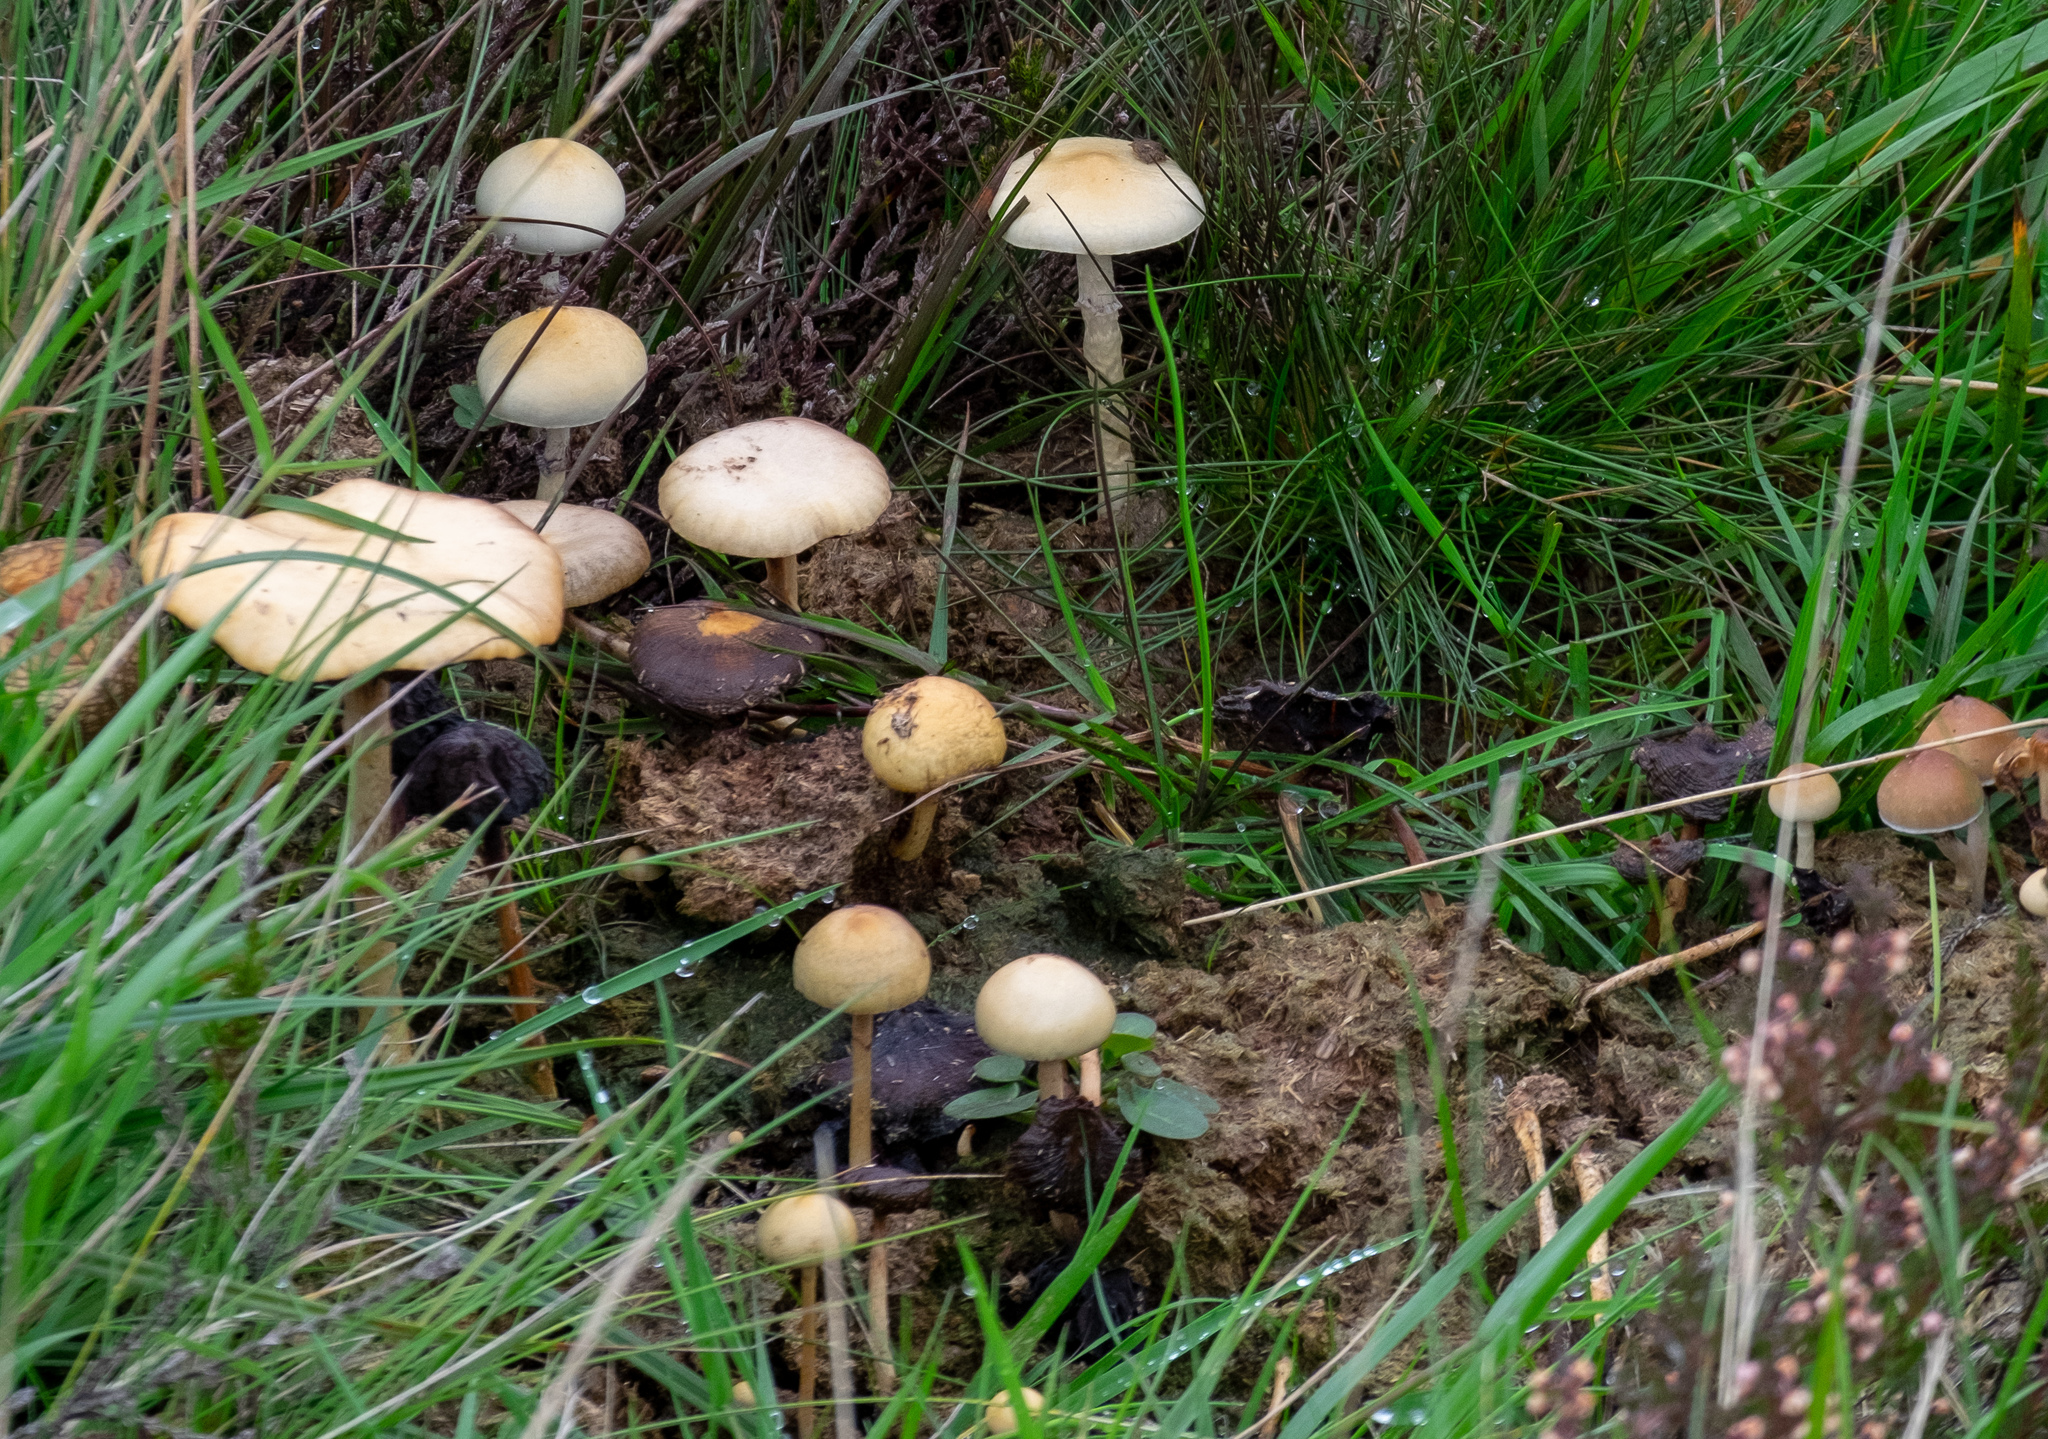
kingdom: Fungi
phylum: Basidiomycota
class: Agaricomycetes
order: Agaricales
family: Strophariaceae
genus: Protostropharia
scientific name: Protostropharia semiglobata
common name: Dung roundhead
